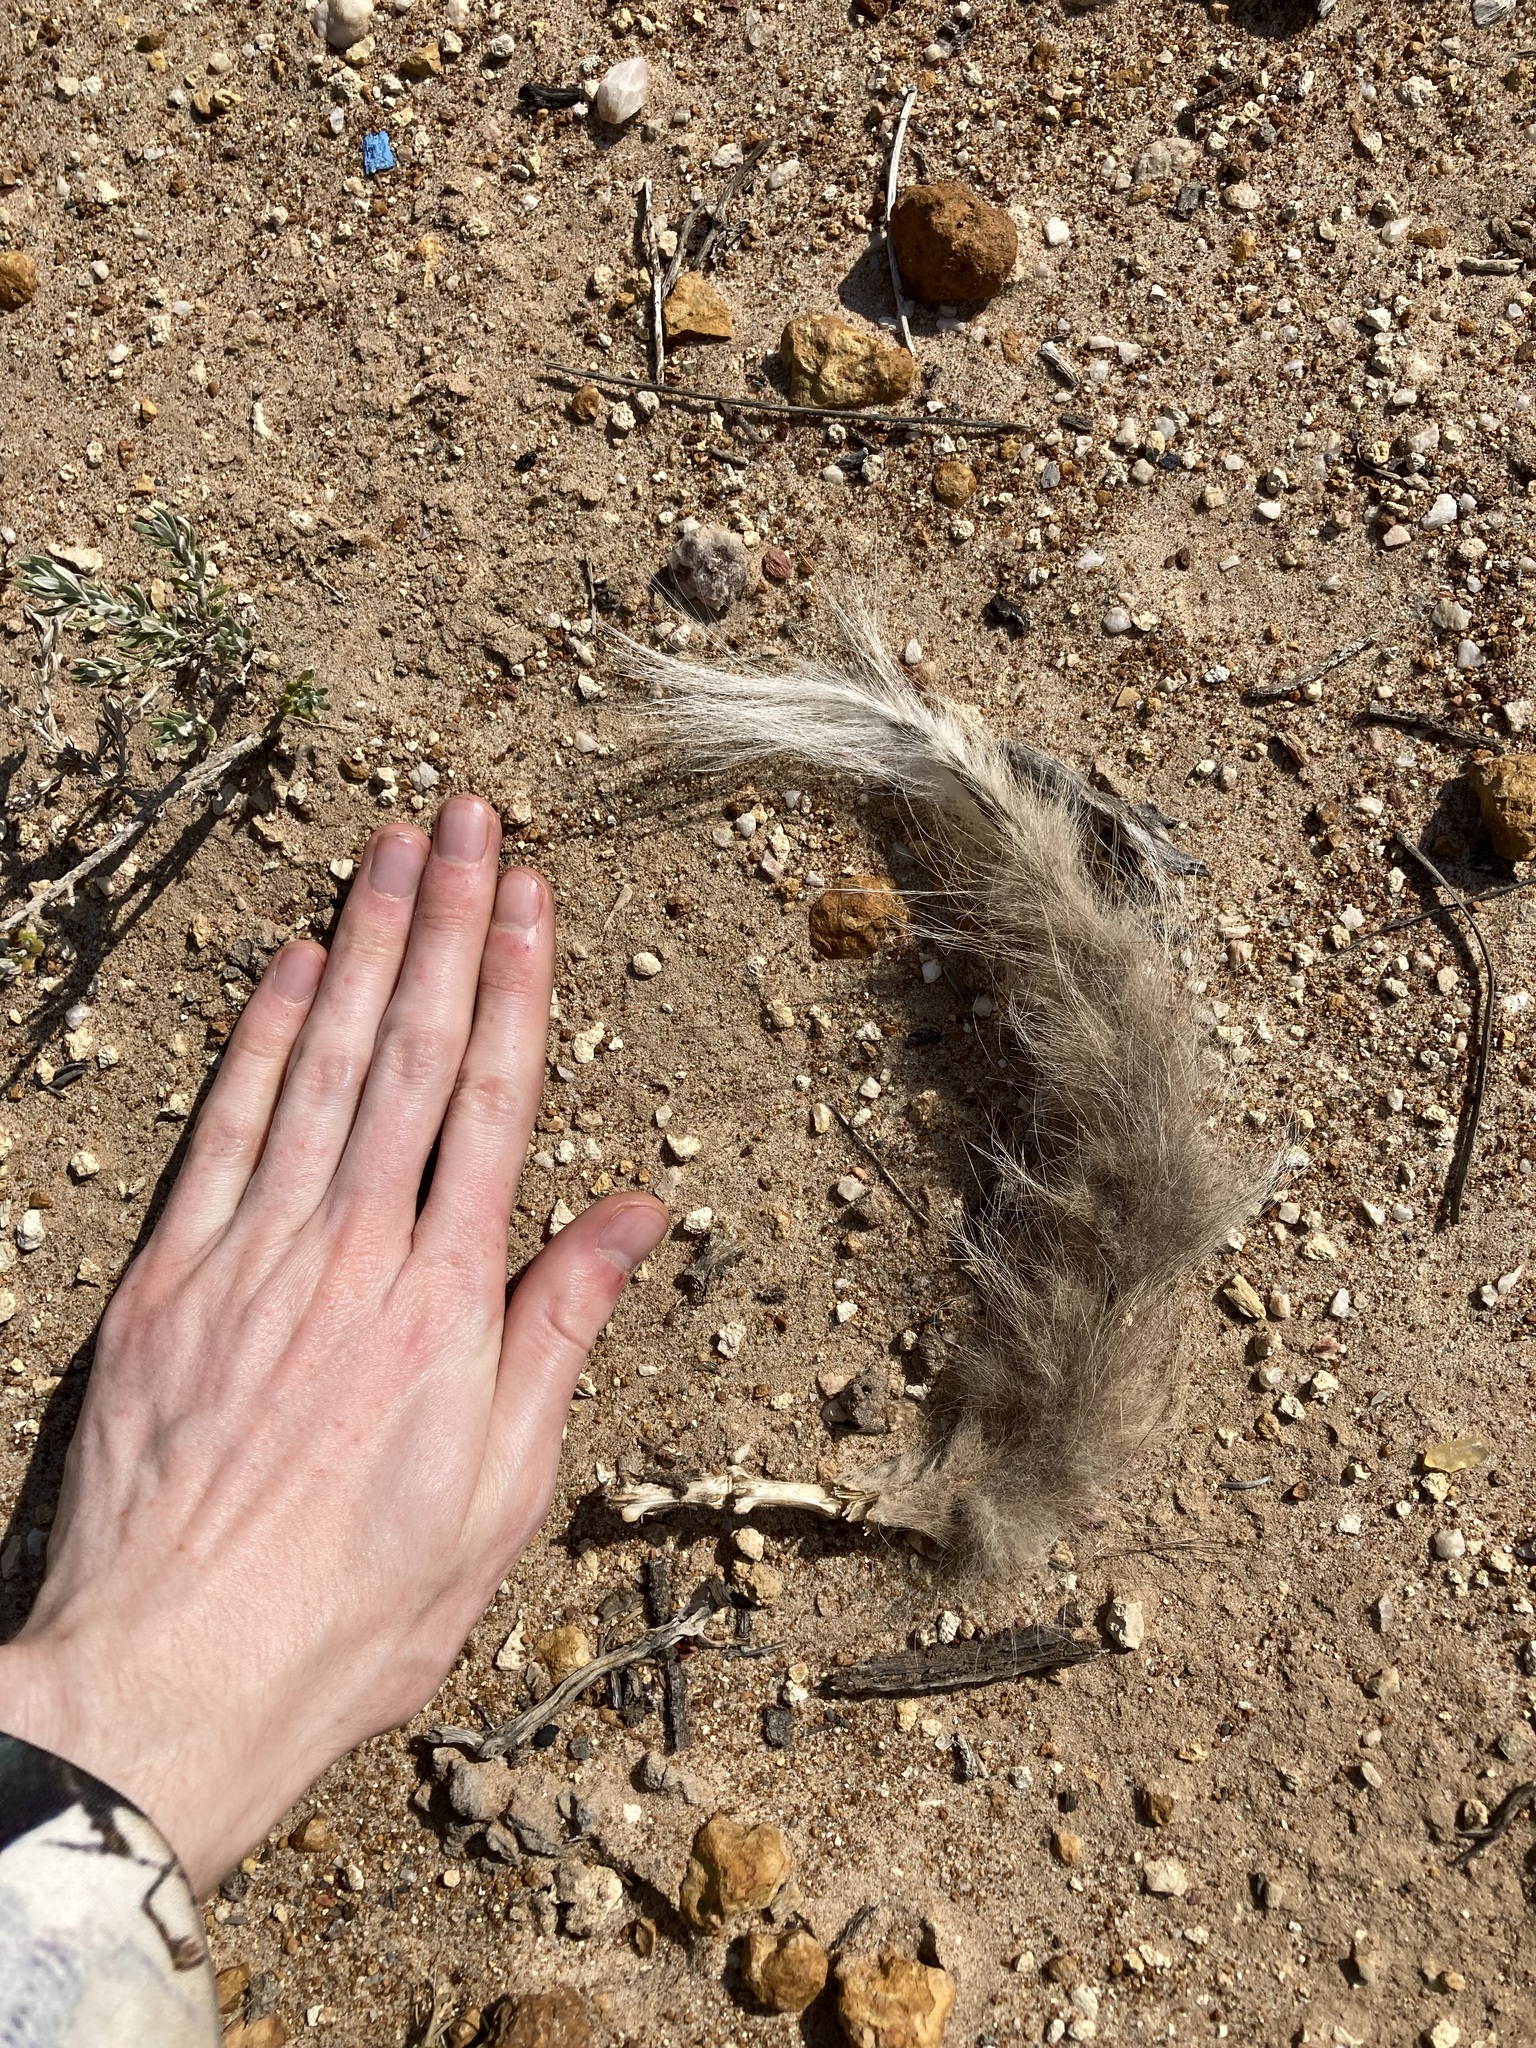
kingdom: Animalia
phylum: Chordata
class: Mammalia
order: Carnivora
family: Canidae
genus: Vulpes
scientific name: Vulpes vulpes
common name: Red fox
